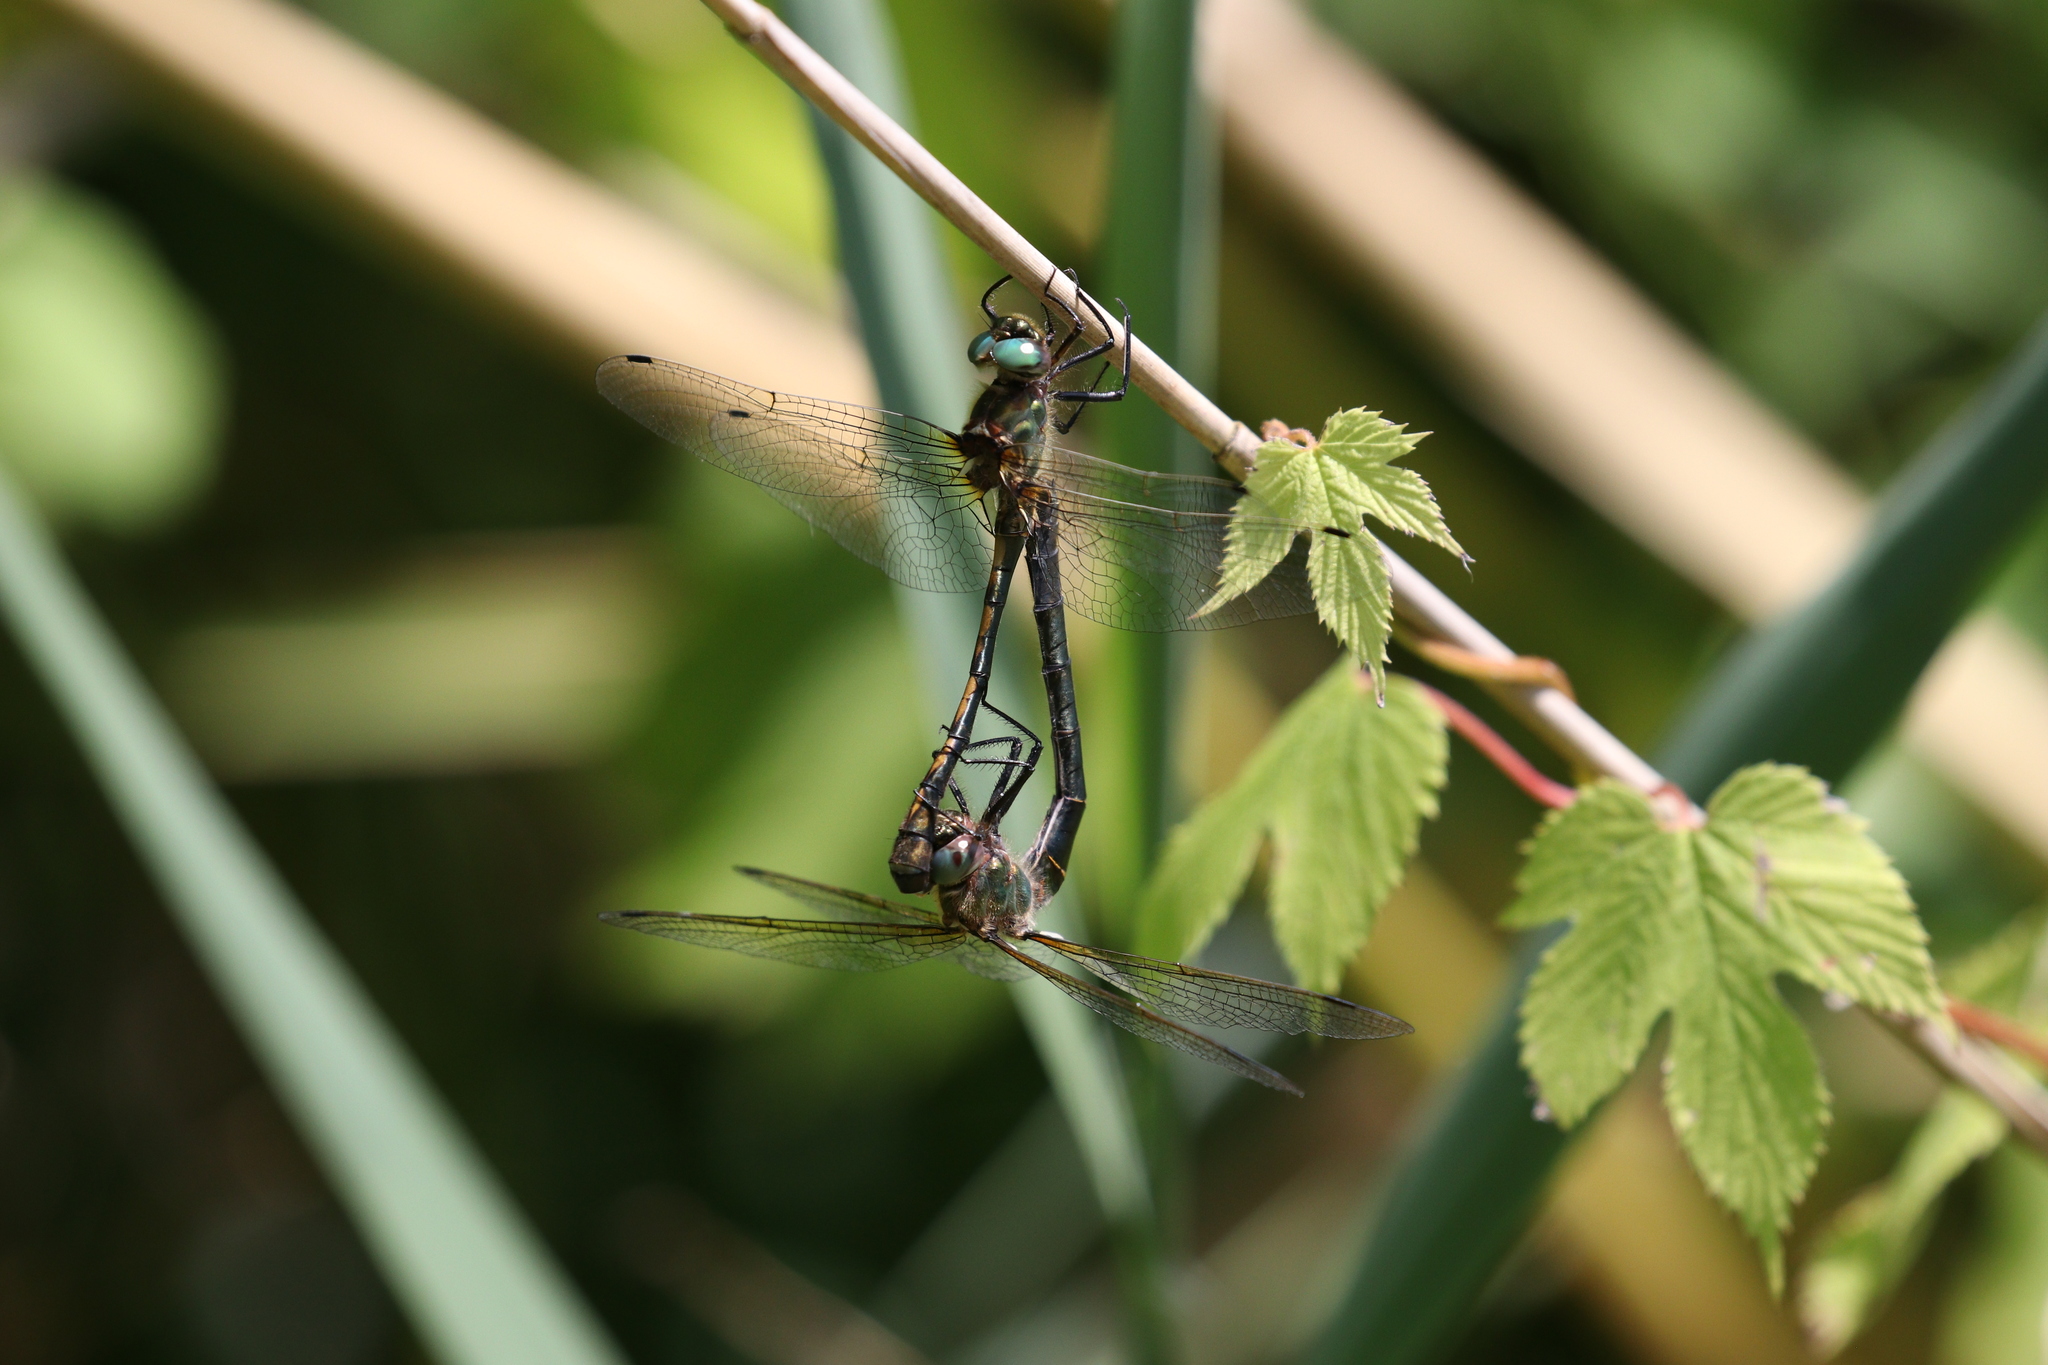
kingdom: Animalia
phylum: Arthropoda
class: Insecta
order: Odonata
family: Corduliidae
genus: Oxygastra
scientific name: Oxygastra curtisii
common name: Orange-spotted emerald
